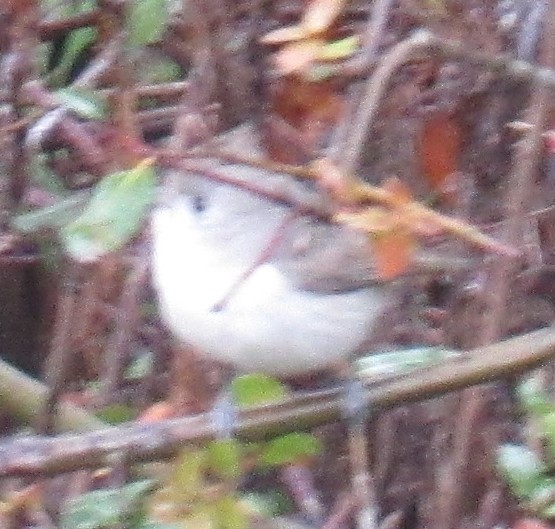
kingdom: Animalia
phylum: Chordata
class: Aves
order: Passeriformes
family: Paridae
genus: Baeolophus
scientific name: Baeolophus inornatus
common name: Oak titmouse
